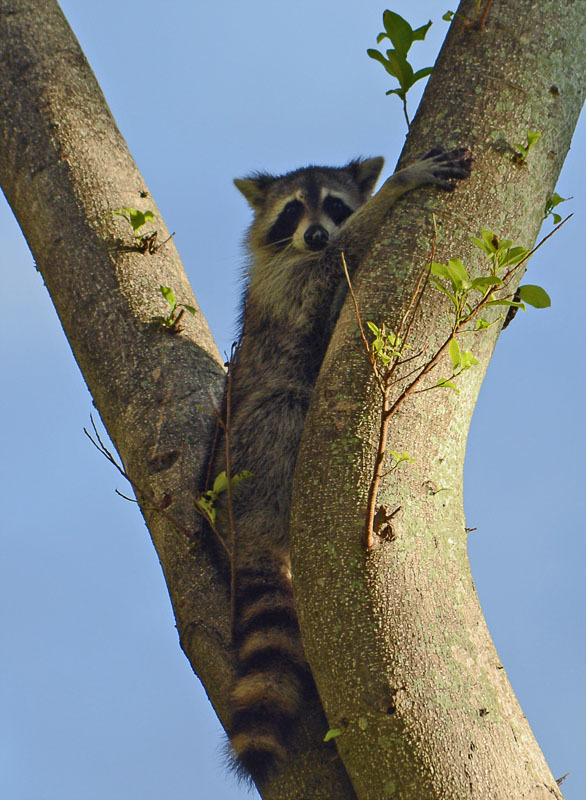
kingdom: Animalia
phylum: Chordata
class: Mammalia
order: Carnivora
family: Procyonidae
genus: Procyon
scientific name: Procyon lotor
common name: Raccoon
